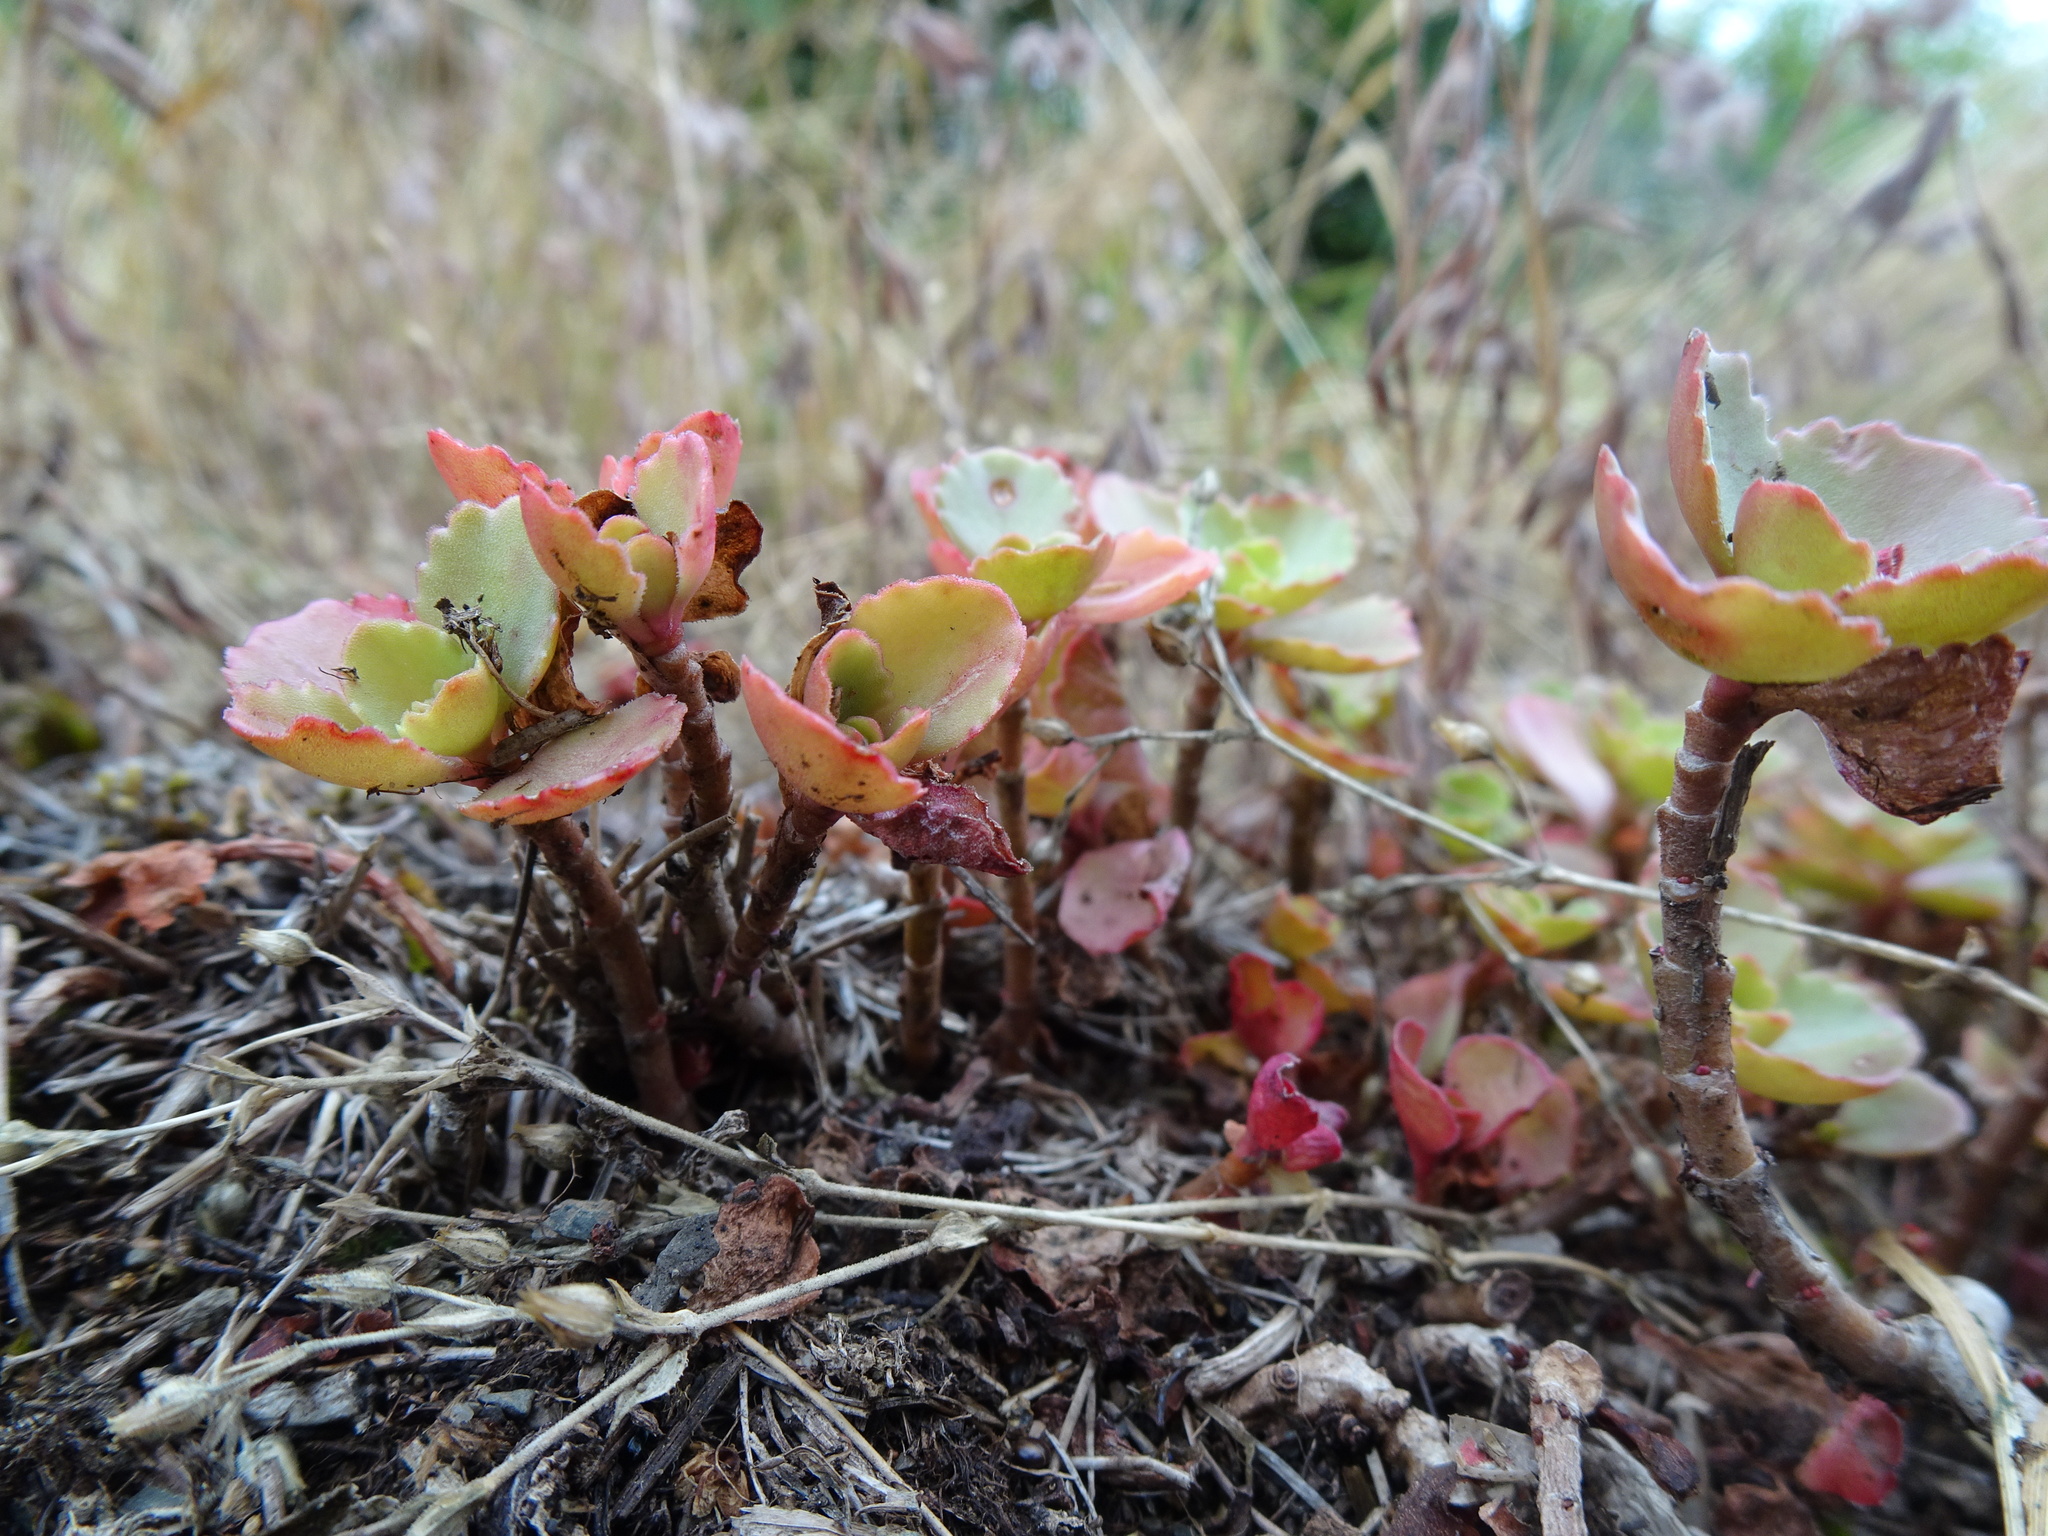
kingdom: Plantae
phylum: Tracheophyta
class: Magnoliopsida
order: Saxifragales
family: Crassulaceae
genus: Phedimus
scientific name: Phedimus spurius
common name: Caucasian stonecrop
